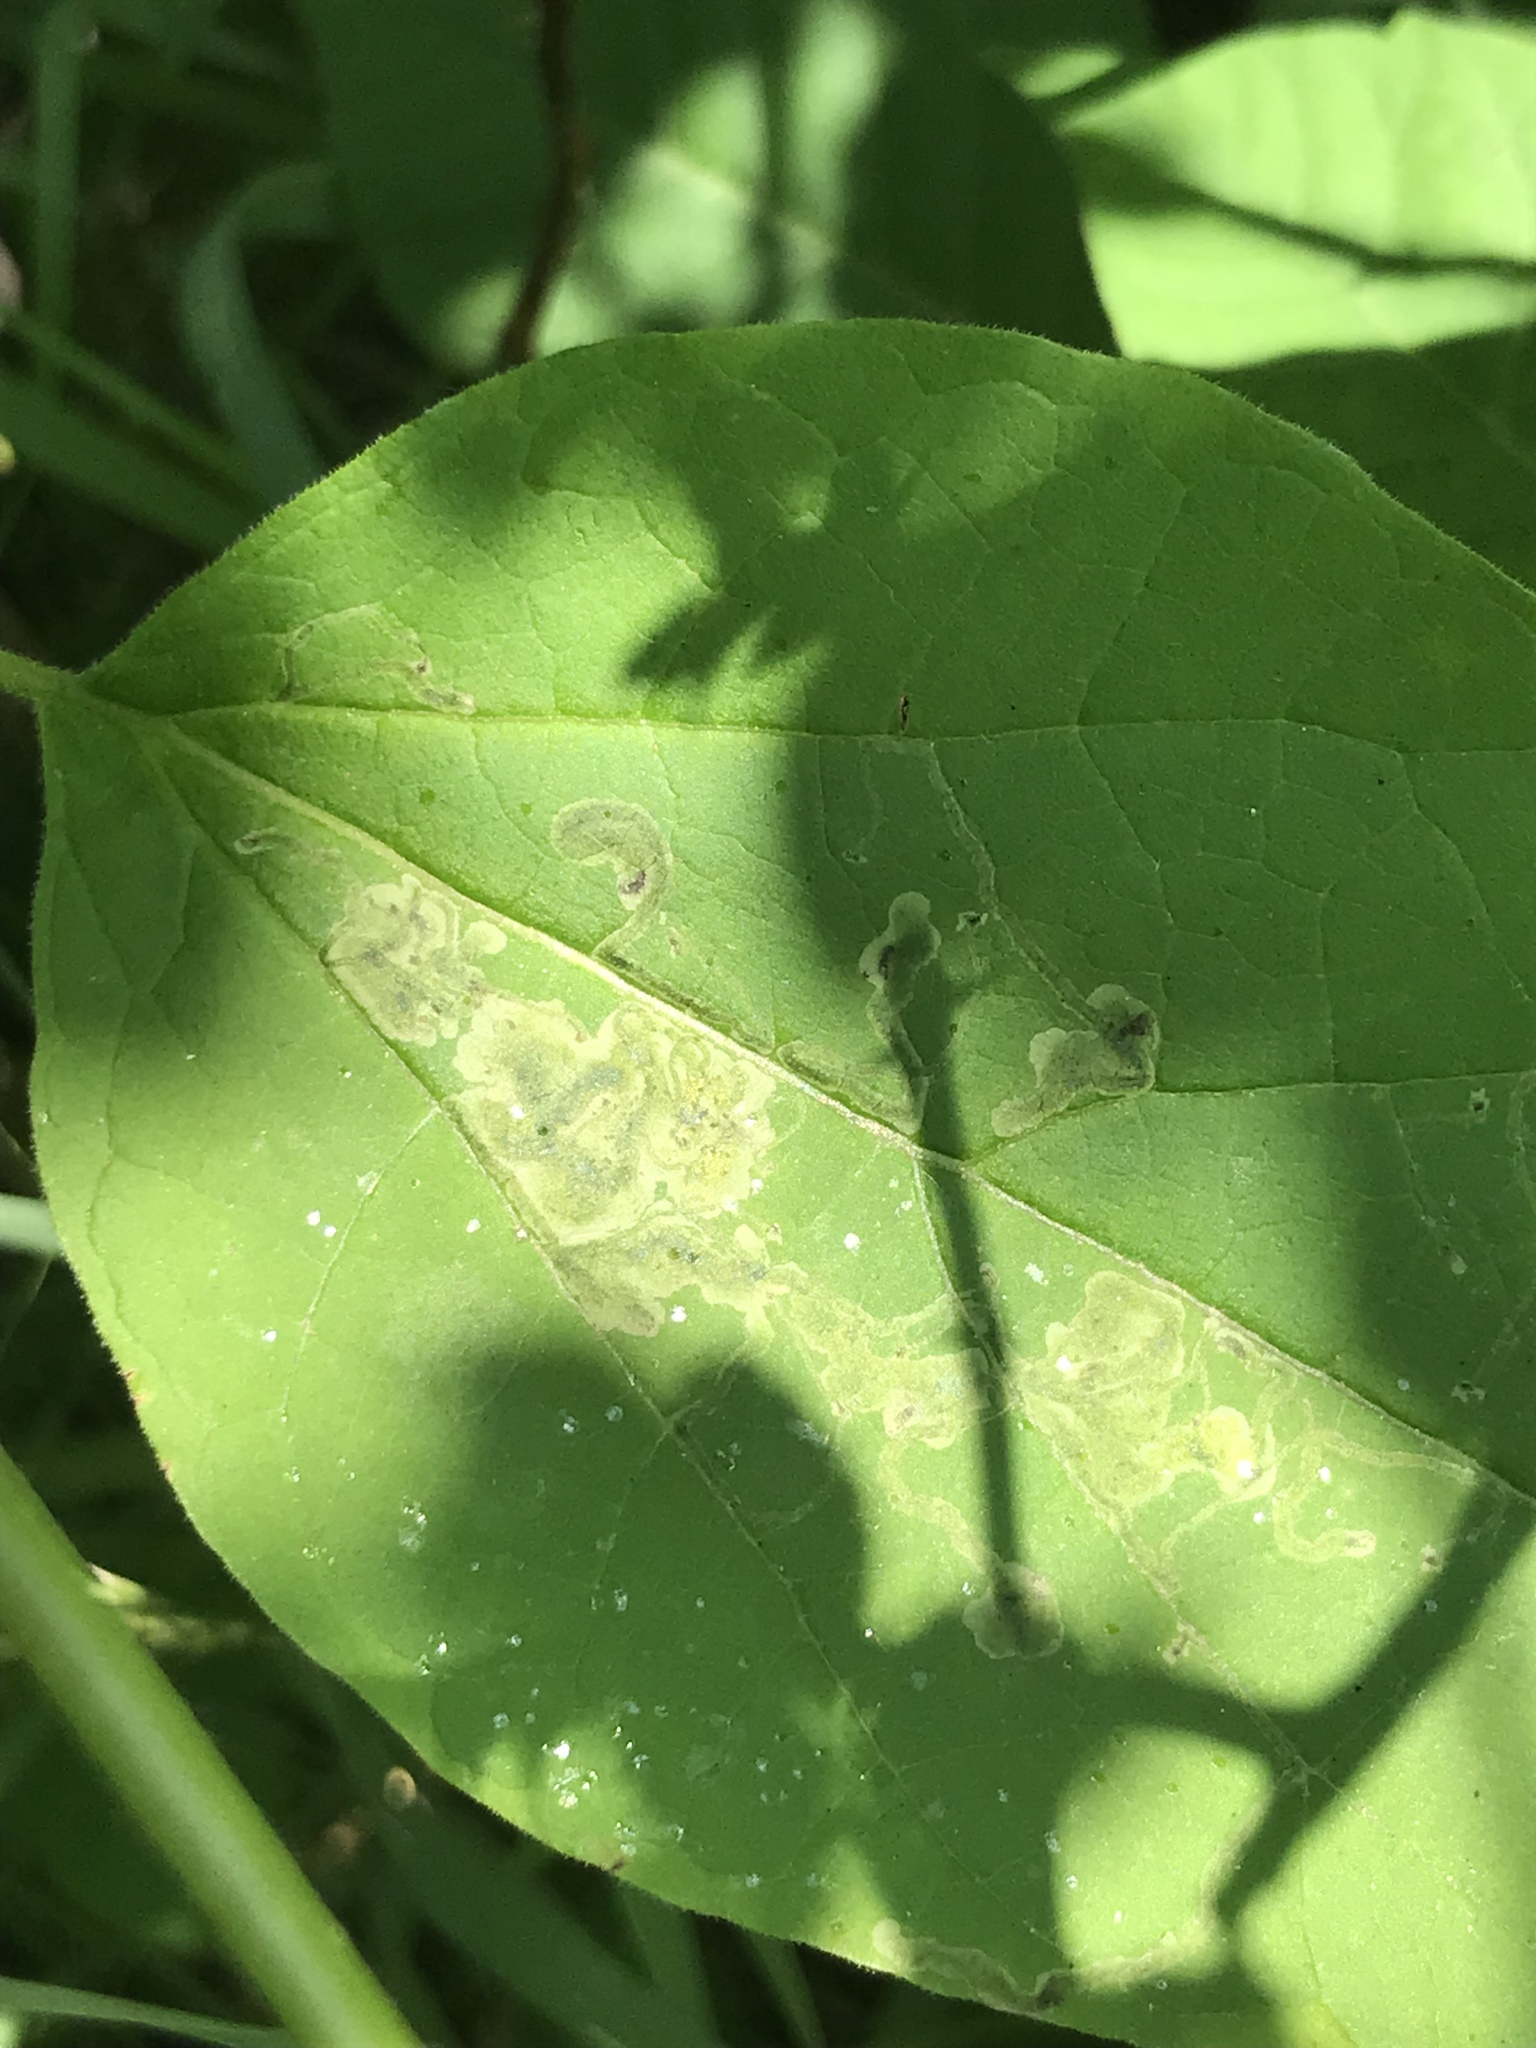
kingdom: Animalia
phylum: Arthropoda
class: Insecta
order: Diptera
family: Agromyzidae
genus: Amauromyza
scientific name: Amauromyza pleuralis
